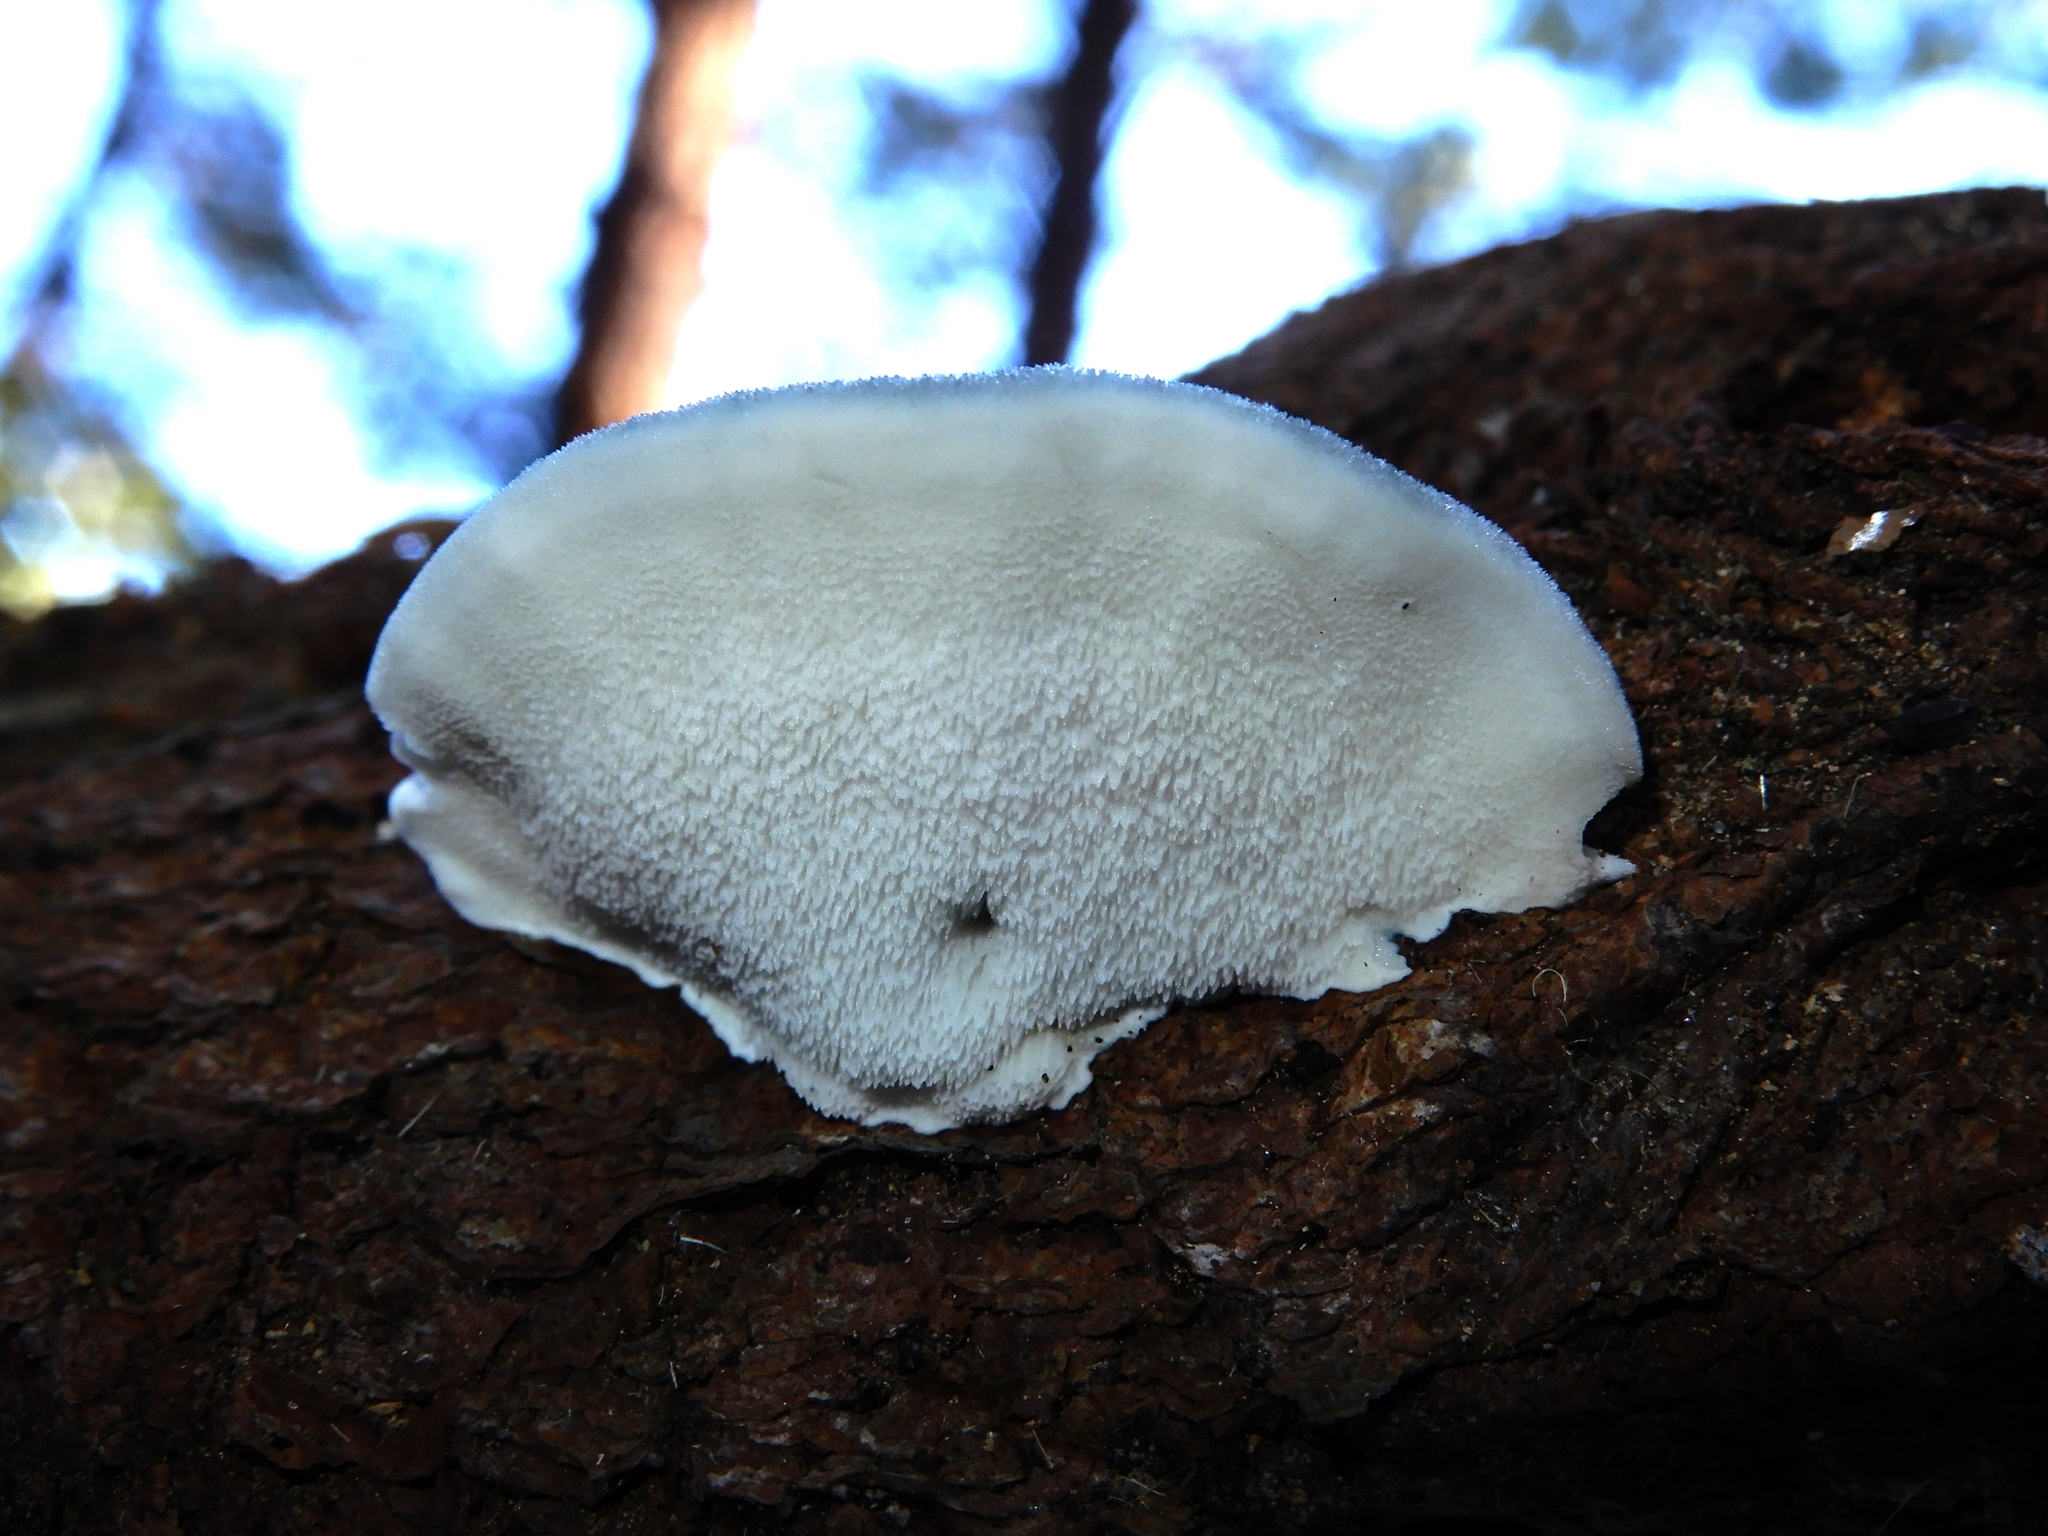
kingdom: Fungi
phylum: Basidiomycota
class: Agaricomycetes
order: Polyporales
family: Polyporaceae
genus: Cyanosporus
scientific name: Cyanosporus caesius
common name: Blue cheese polypore
